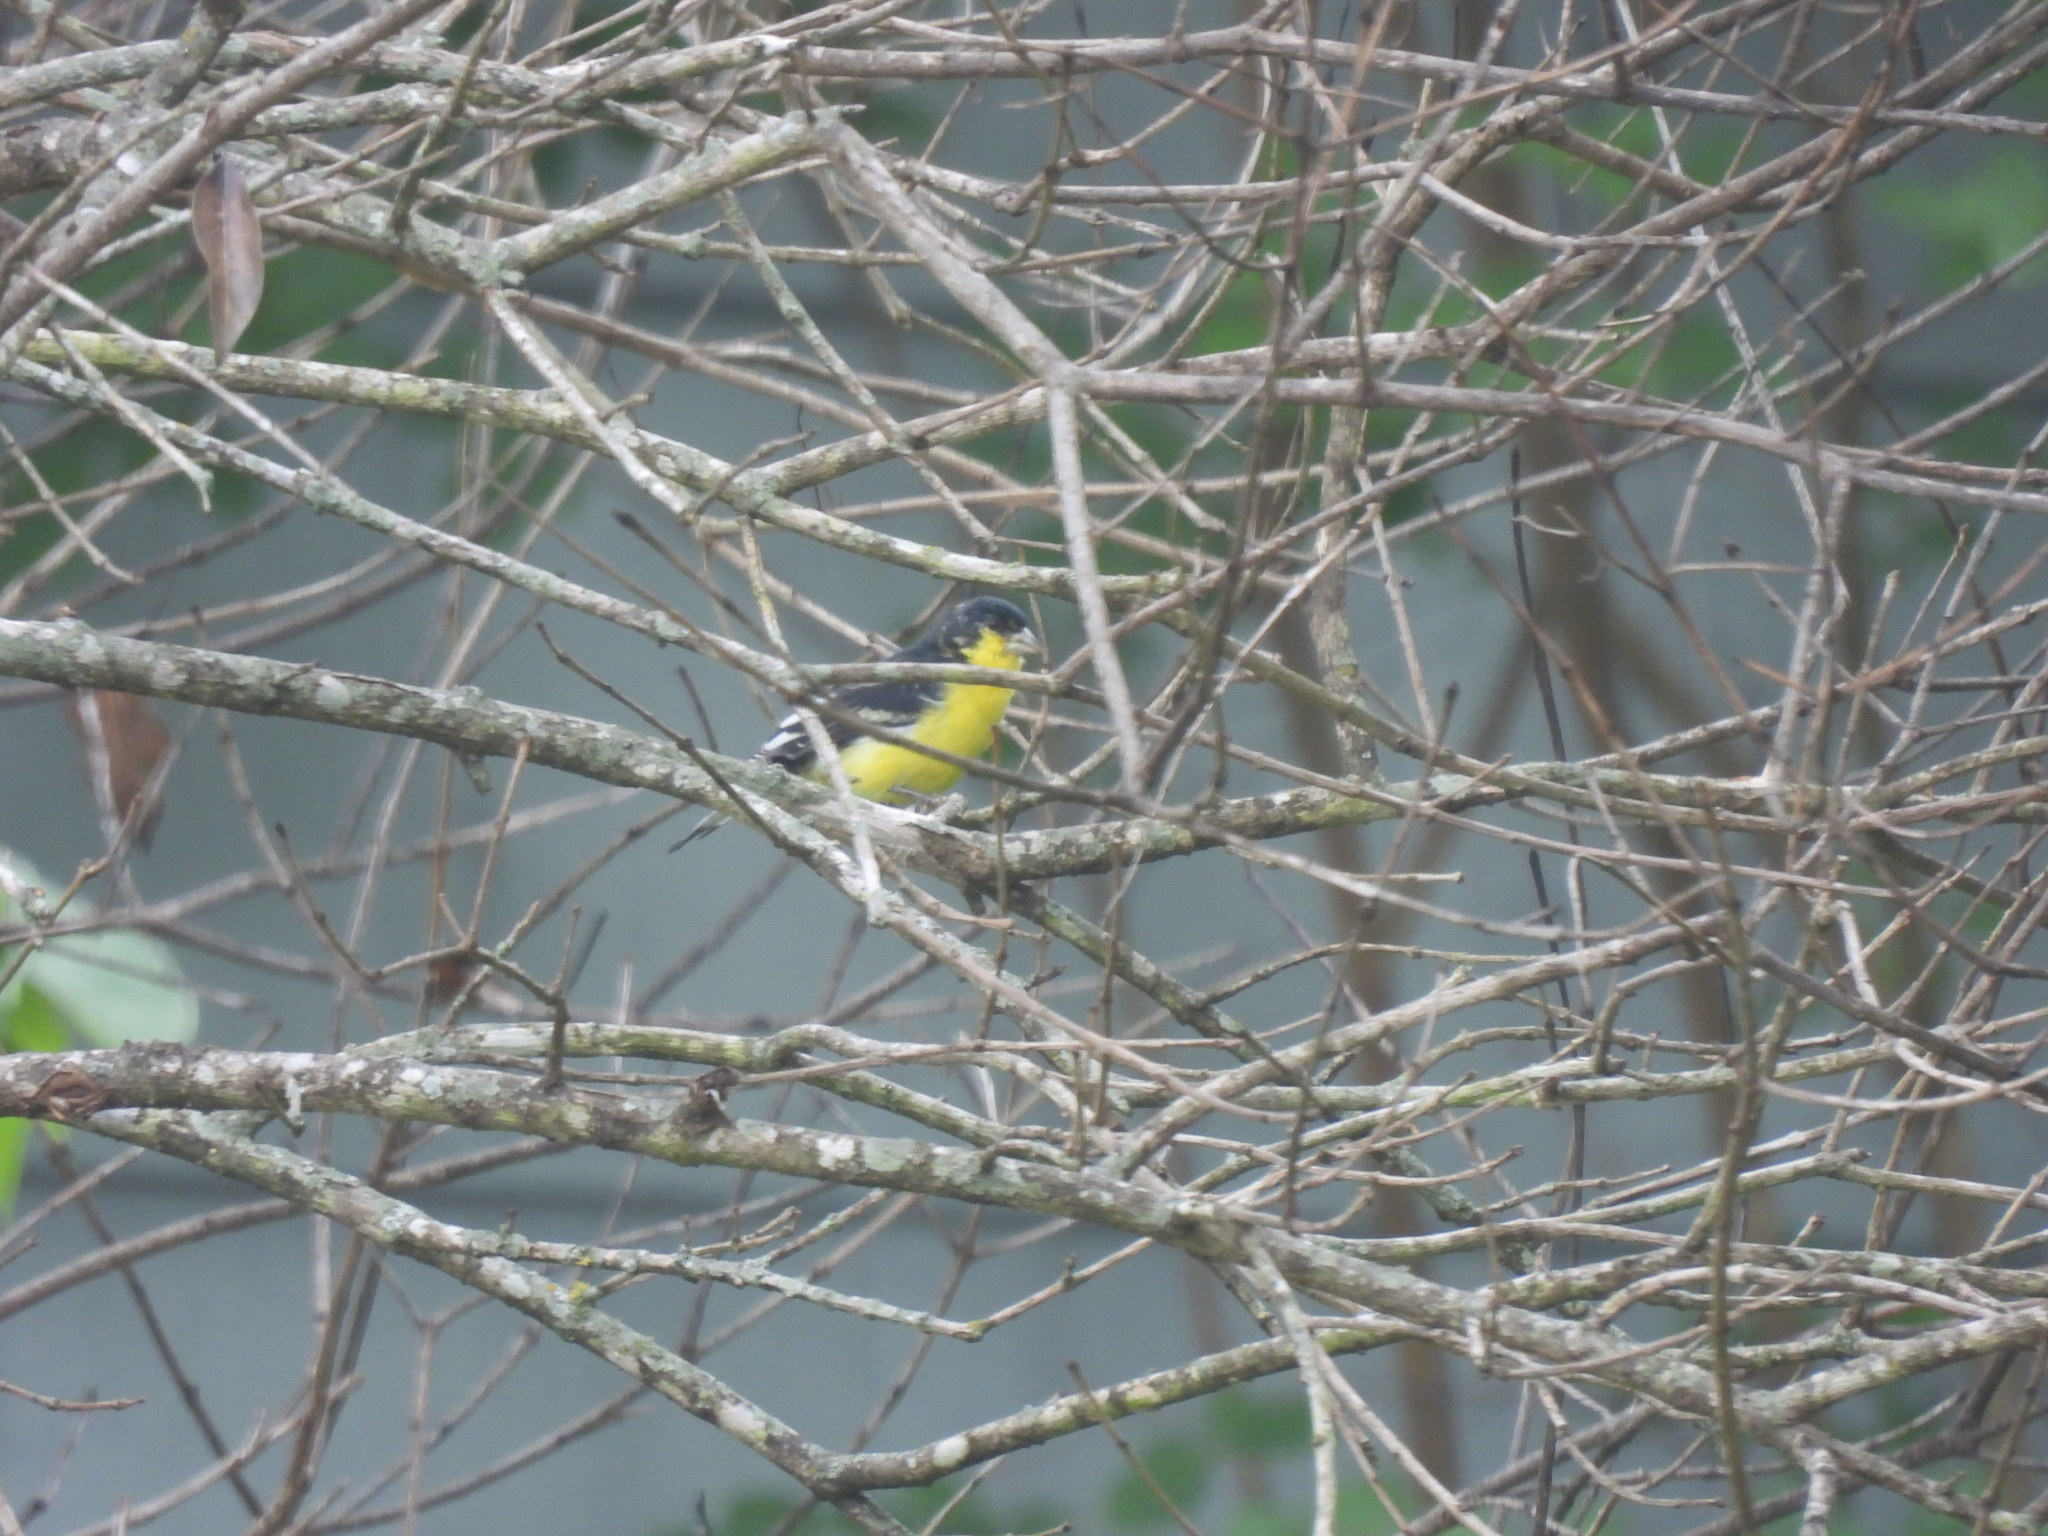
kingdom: Animalia
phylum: Chordata
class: Aves
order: Passeriformes
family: Fringillidae
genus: Spinus
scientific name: Spinus psaltria
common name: Lesser goldfinch
